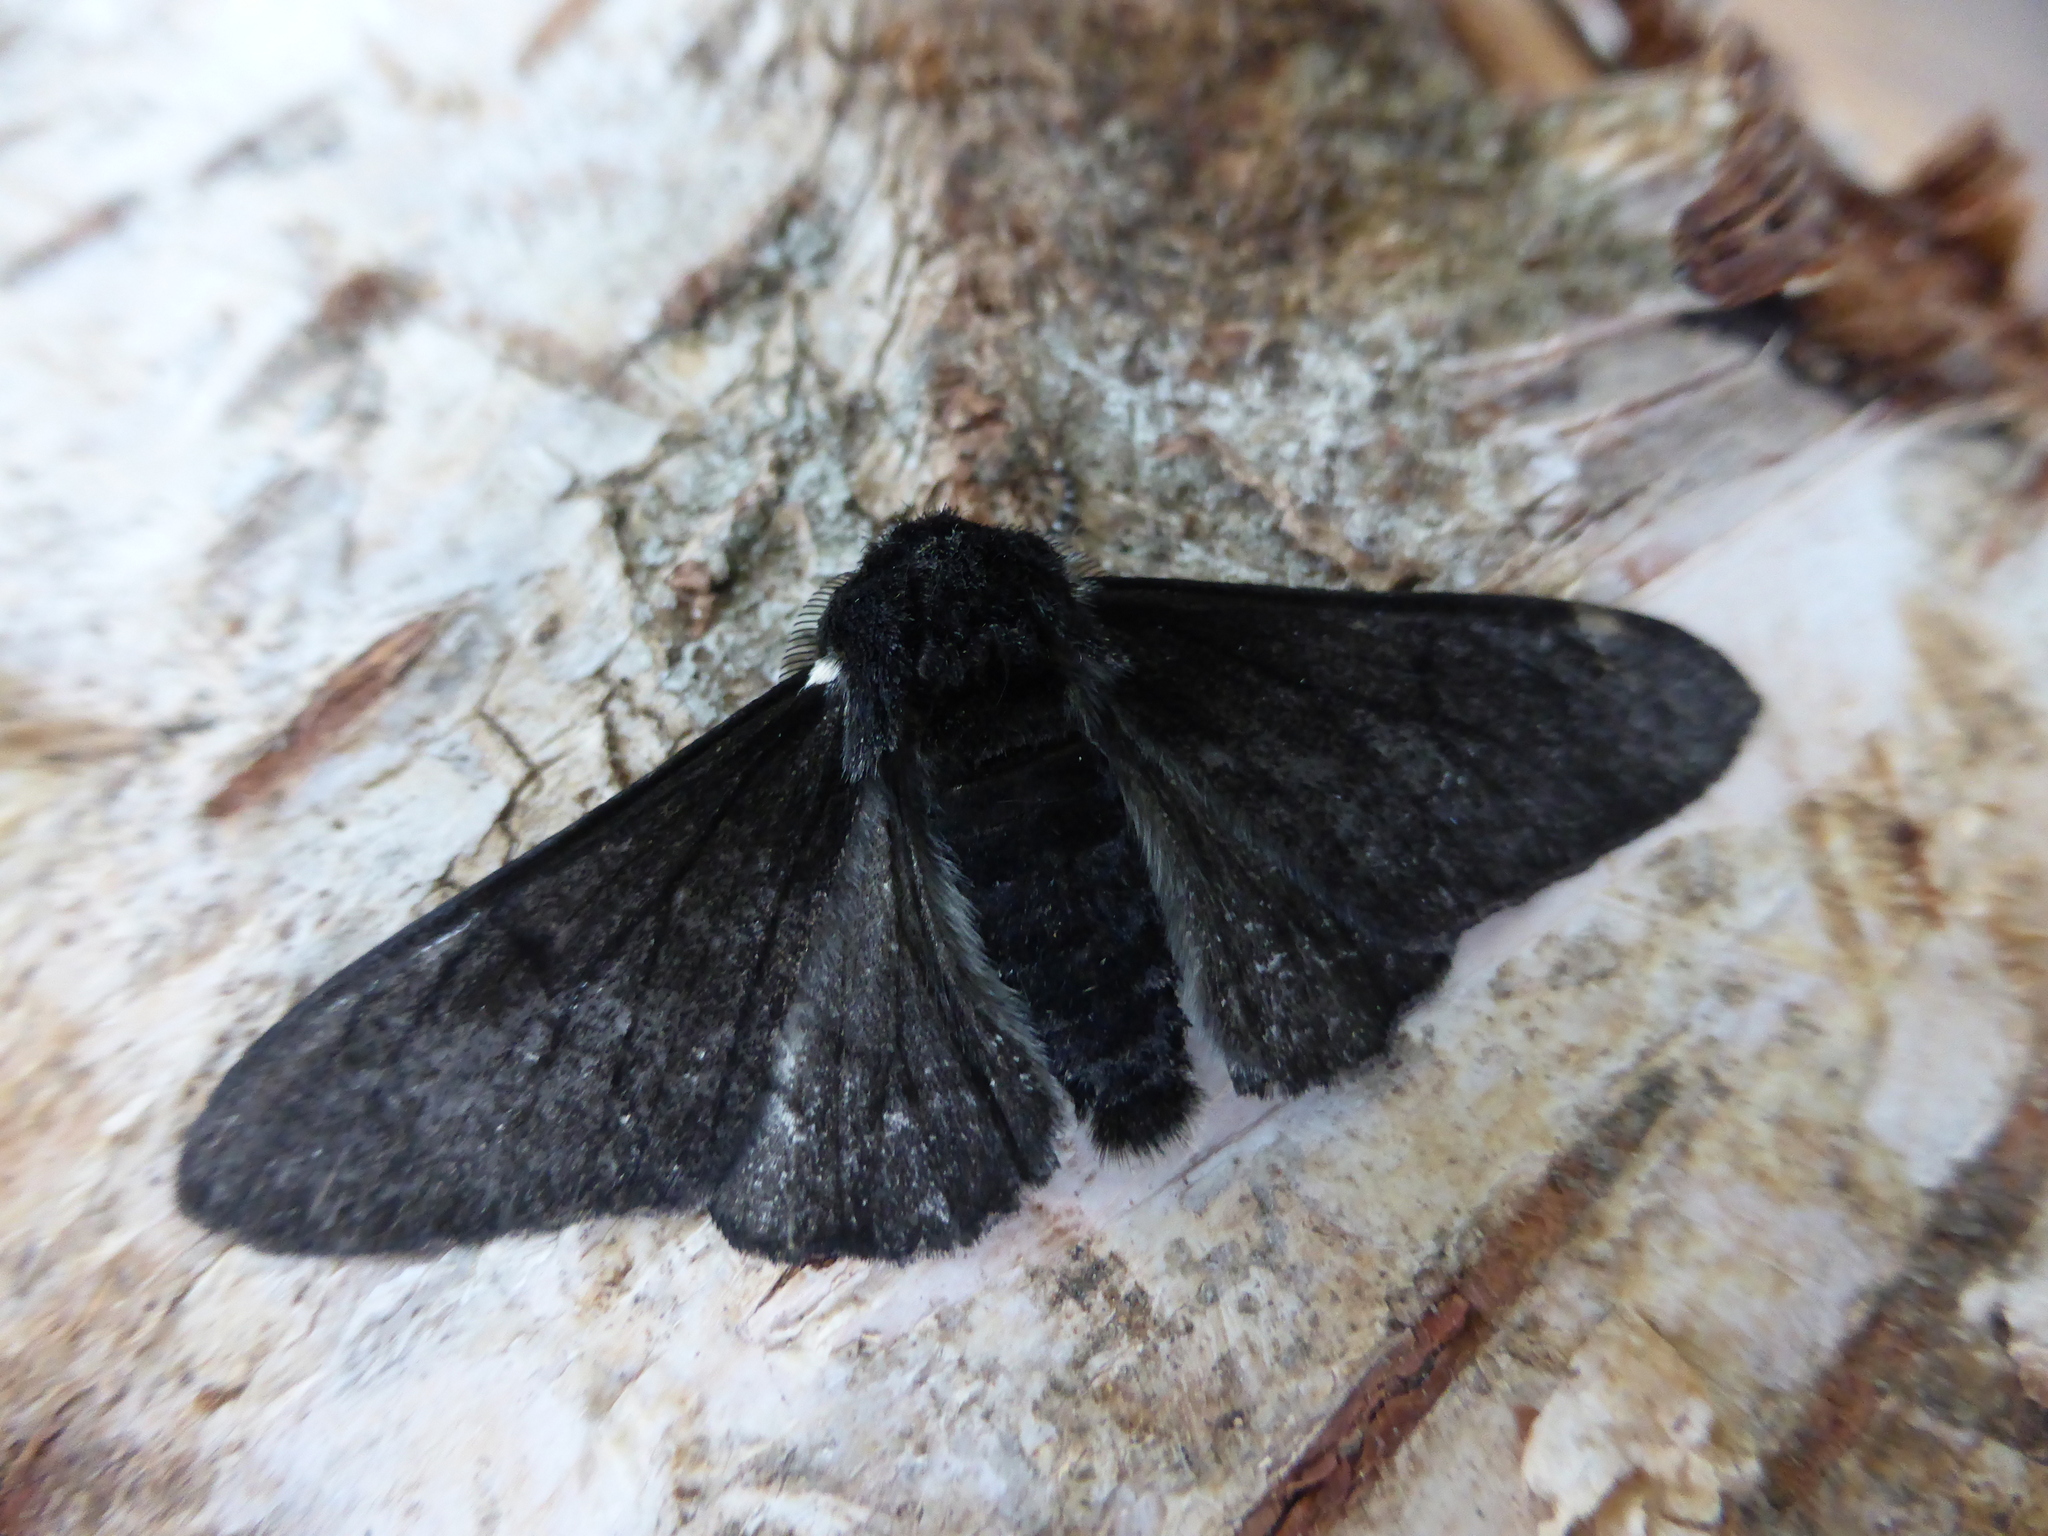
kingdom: Animalia
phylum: Arthropoda
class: Insecta
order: Lepidoptera
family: Geometridae
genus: Biston
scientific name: Biston betularia
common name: Peppered moth
